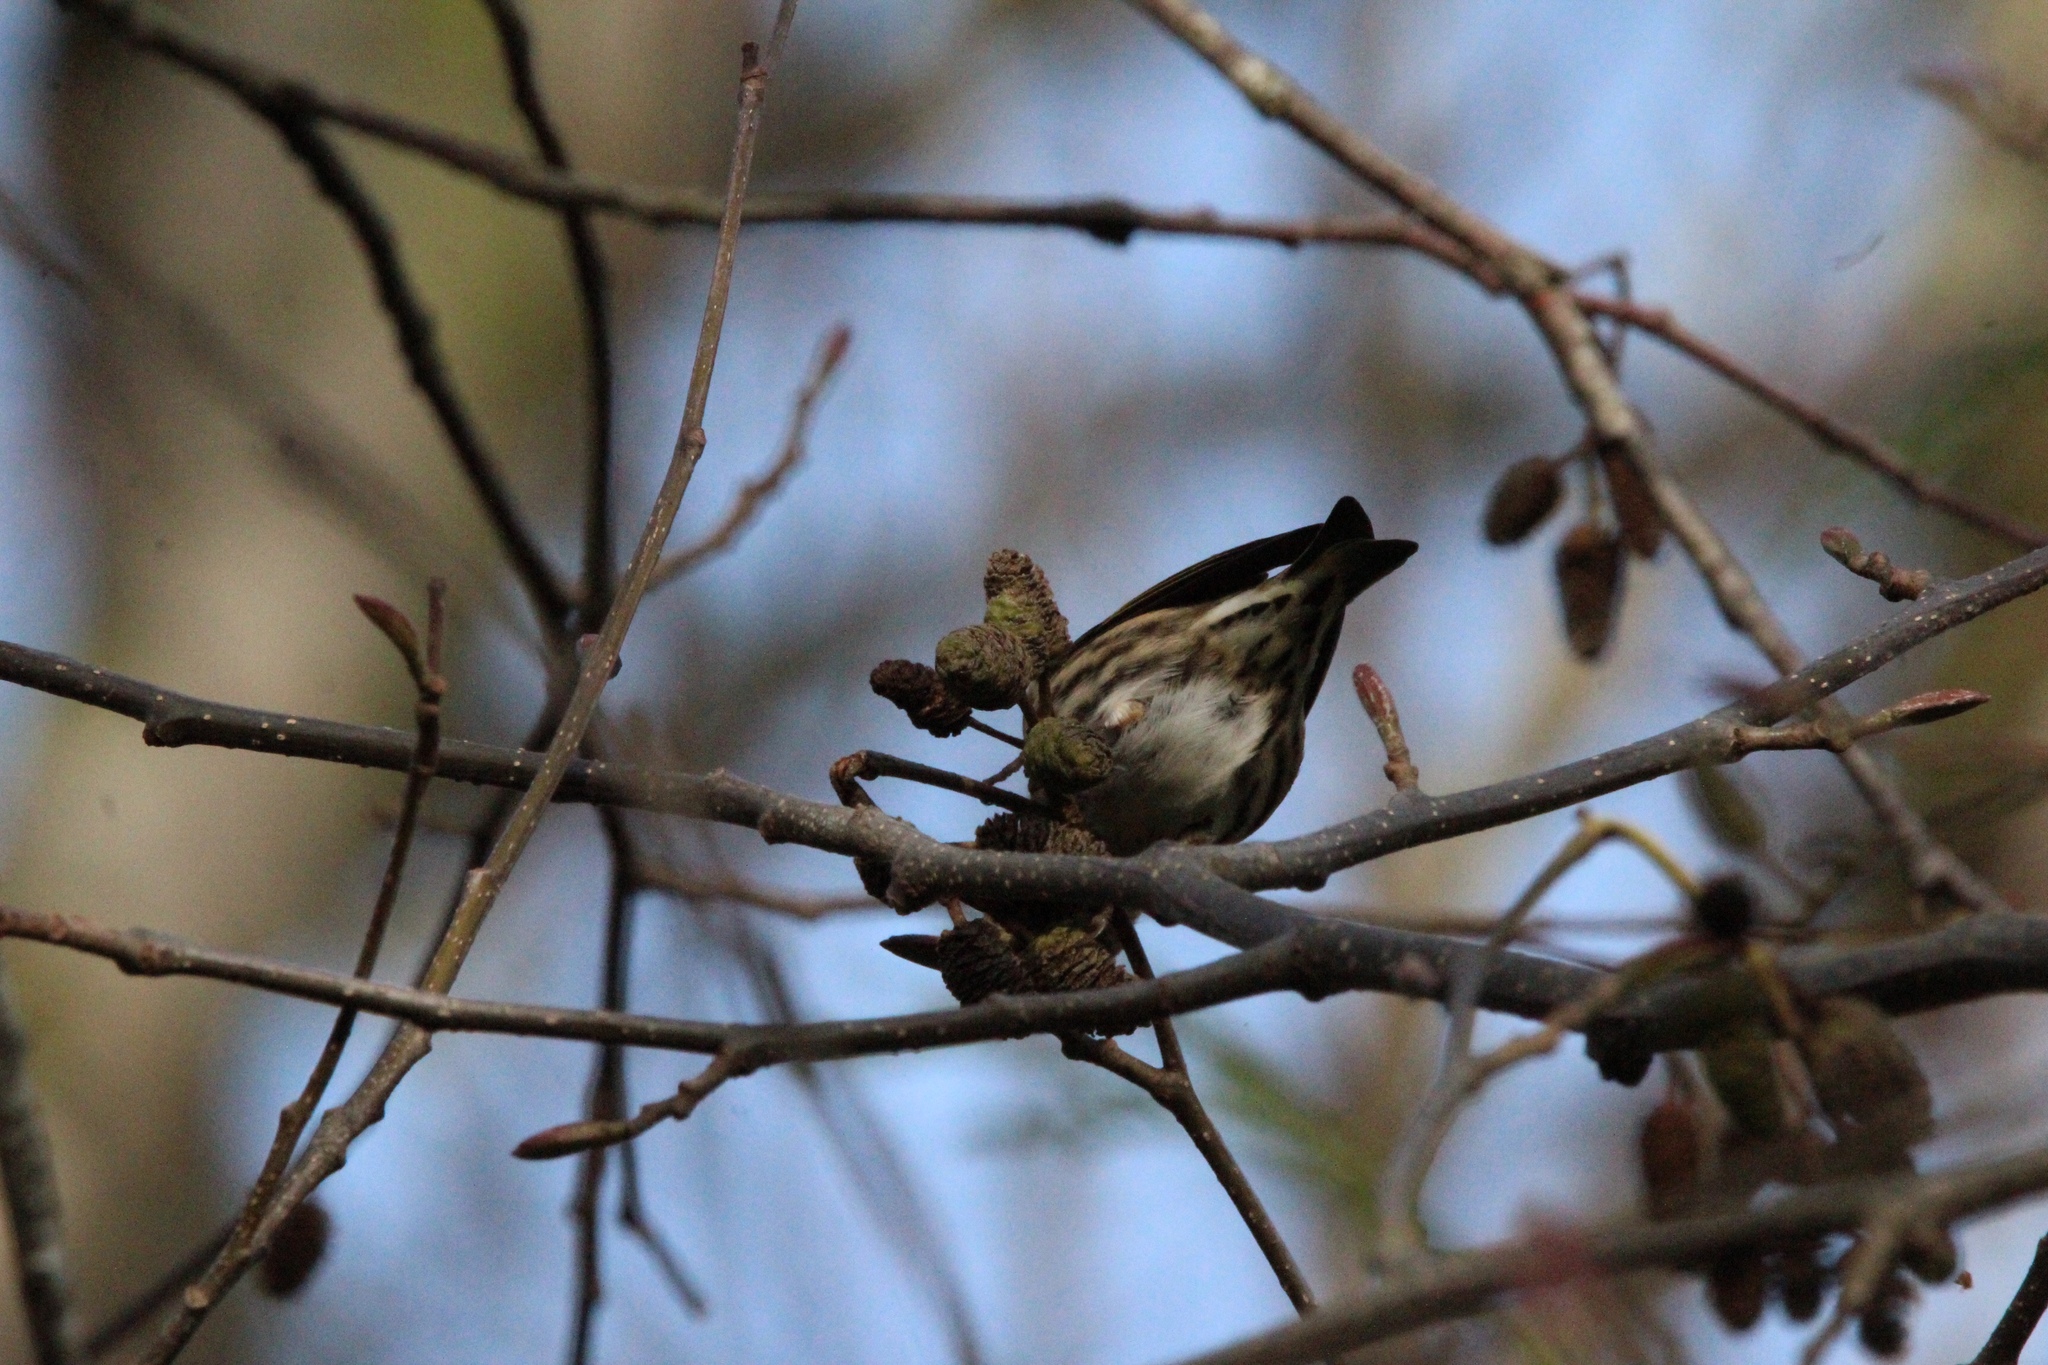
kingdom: Animalia
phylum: Chordata
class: Aves
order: Passeriformes
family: Fringillidae
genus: Spinus
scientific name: Spinus pinus
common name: Pine siskin
